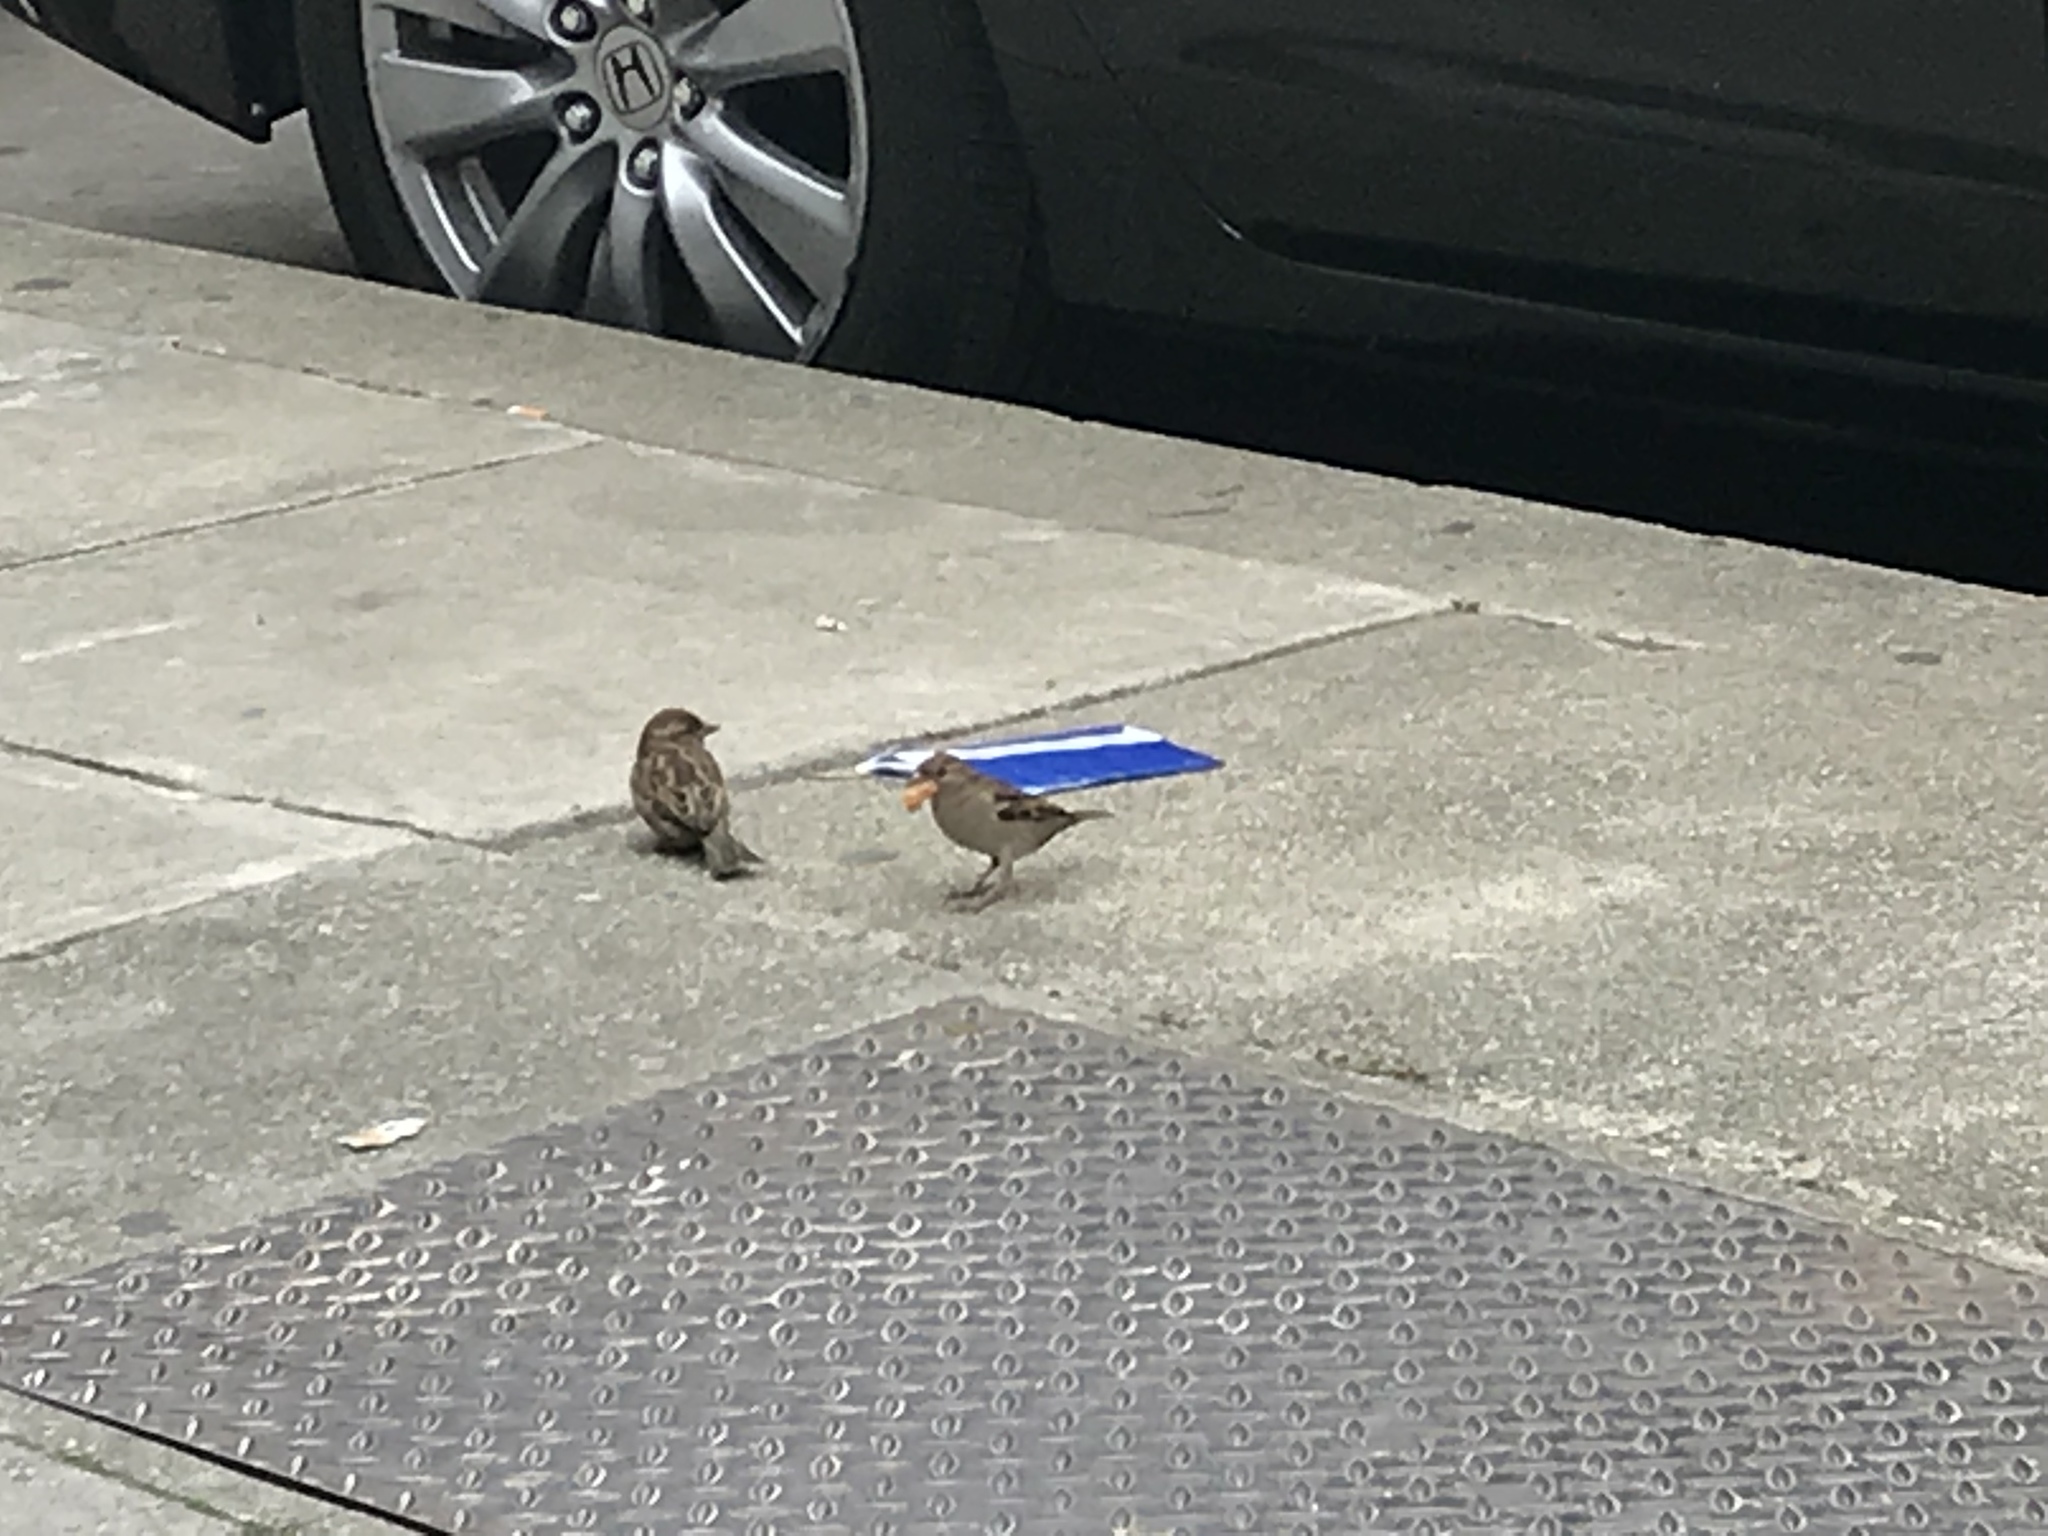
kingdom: Animalia
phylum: Chordata
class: Aves
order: Passeriformes
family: Passeridae
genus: Passer
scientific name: Passer domesticus
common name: House sparrow
